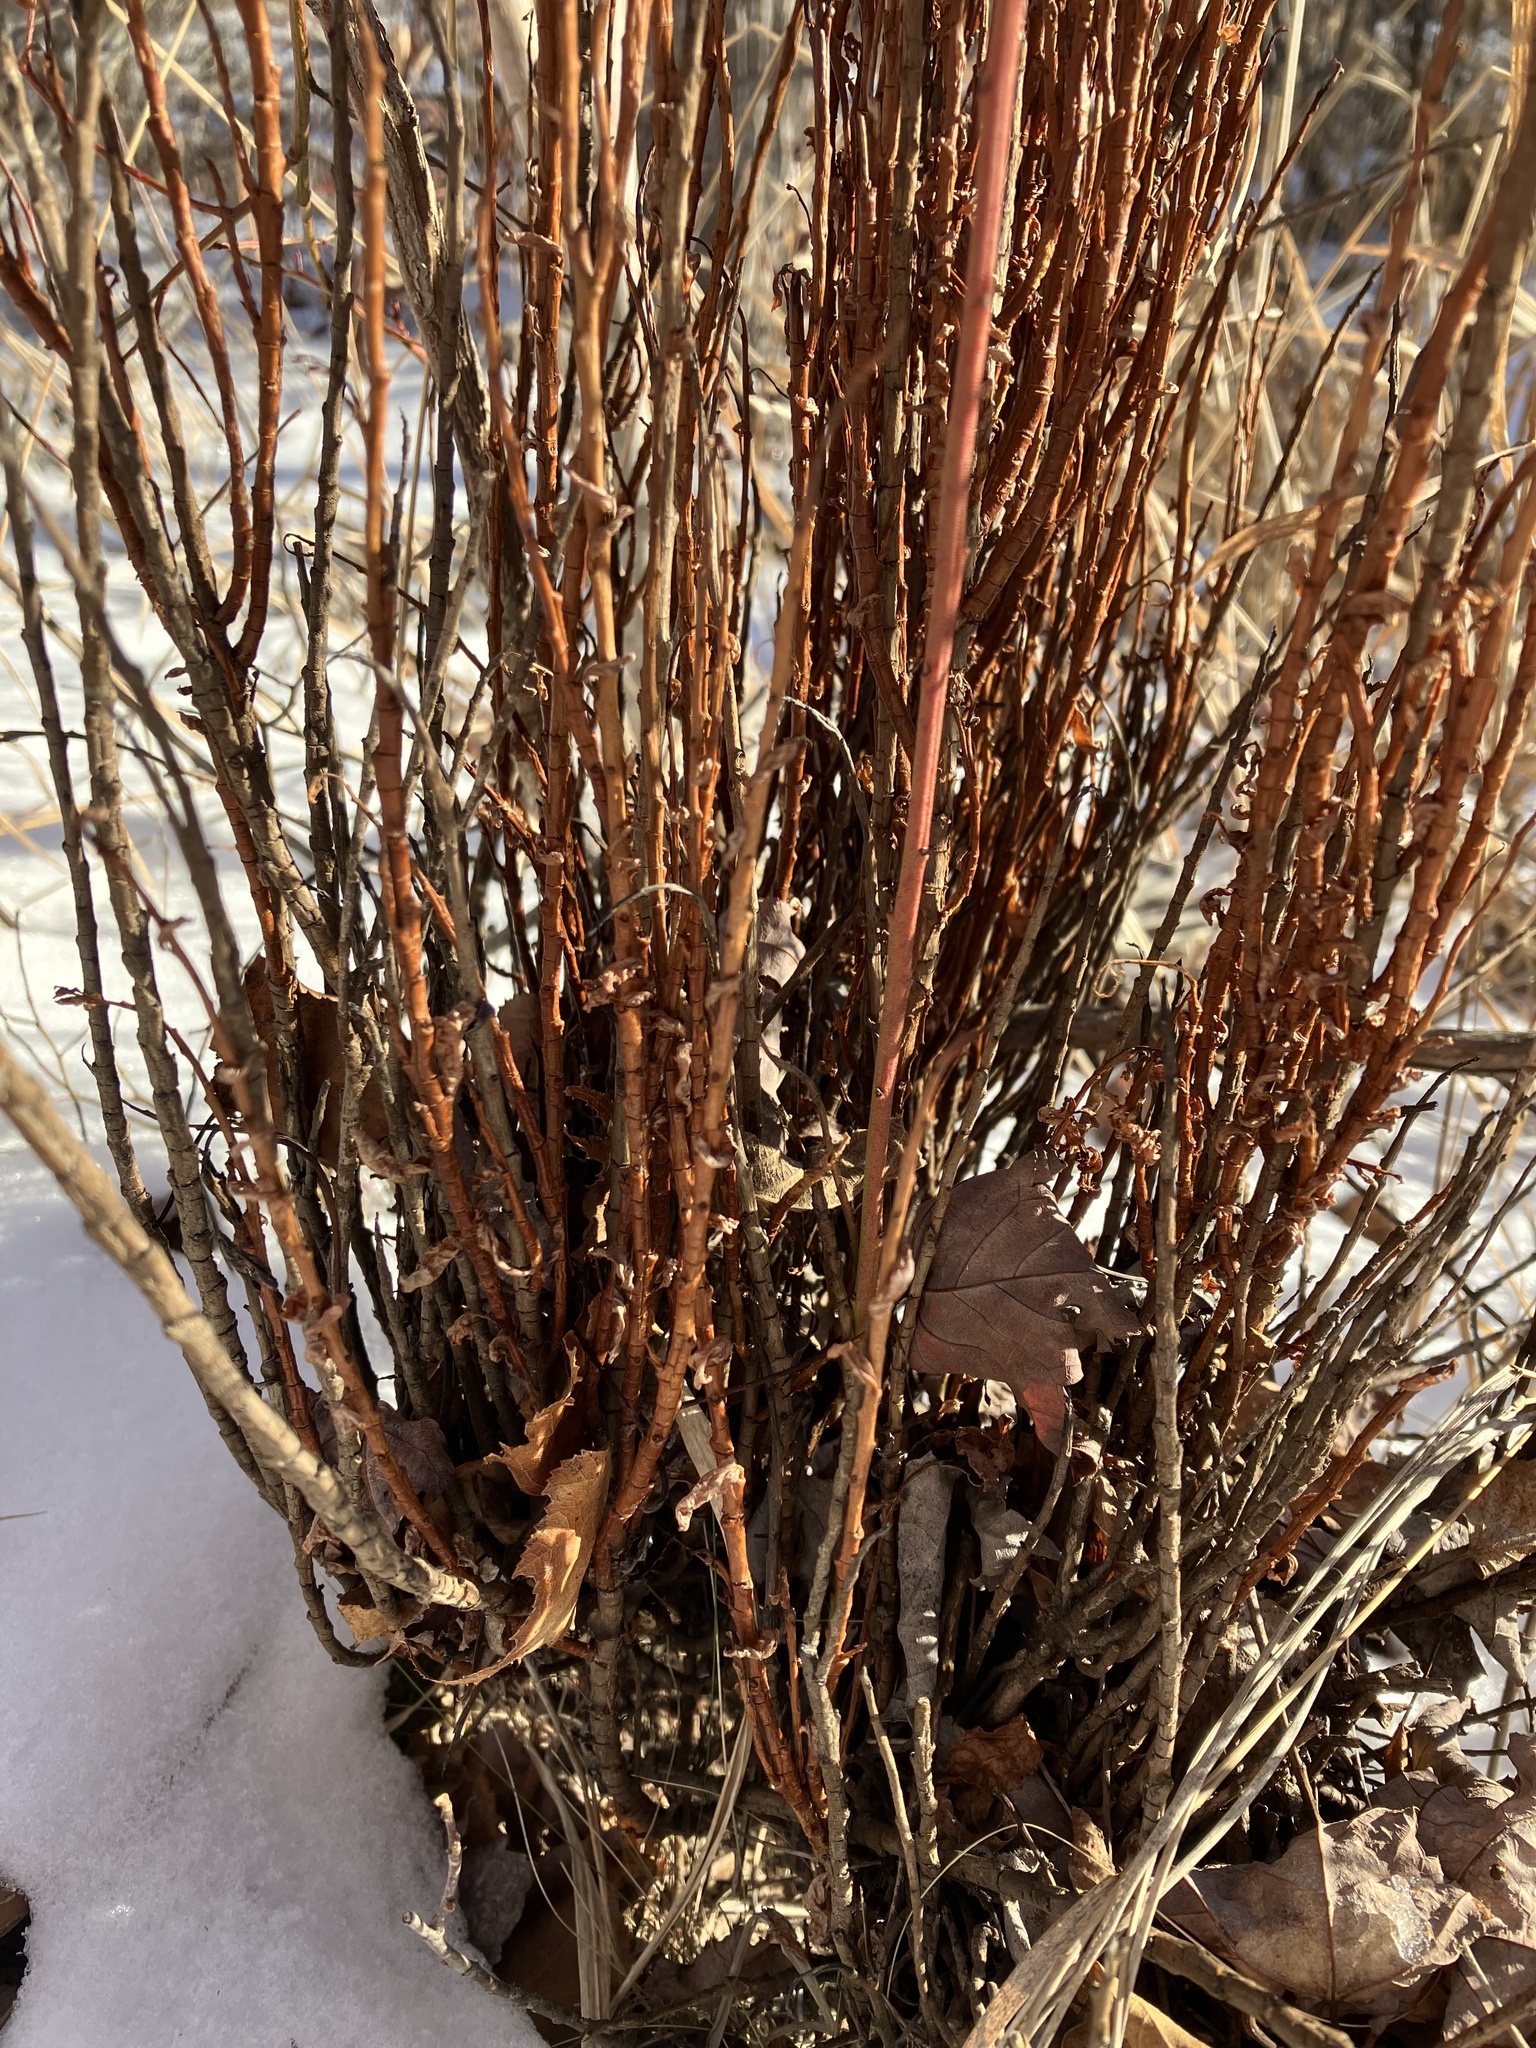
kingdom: Fungi
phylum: Basidiomycota
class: Pucciniomycetes
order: Pucciniales
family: Pucciniastraceae
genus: Calyptospora
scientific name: Calyptospora columnaris
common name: Huckleberry broom rust fungus
